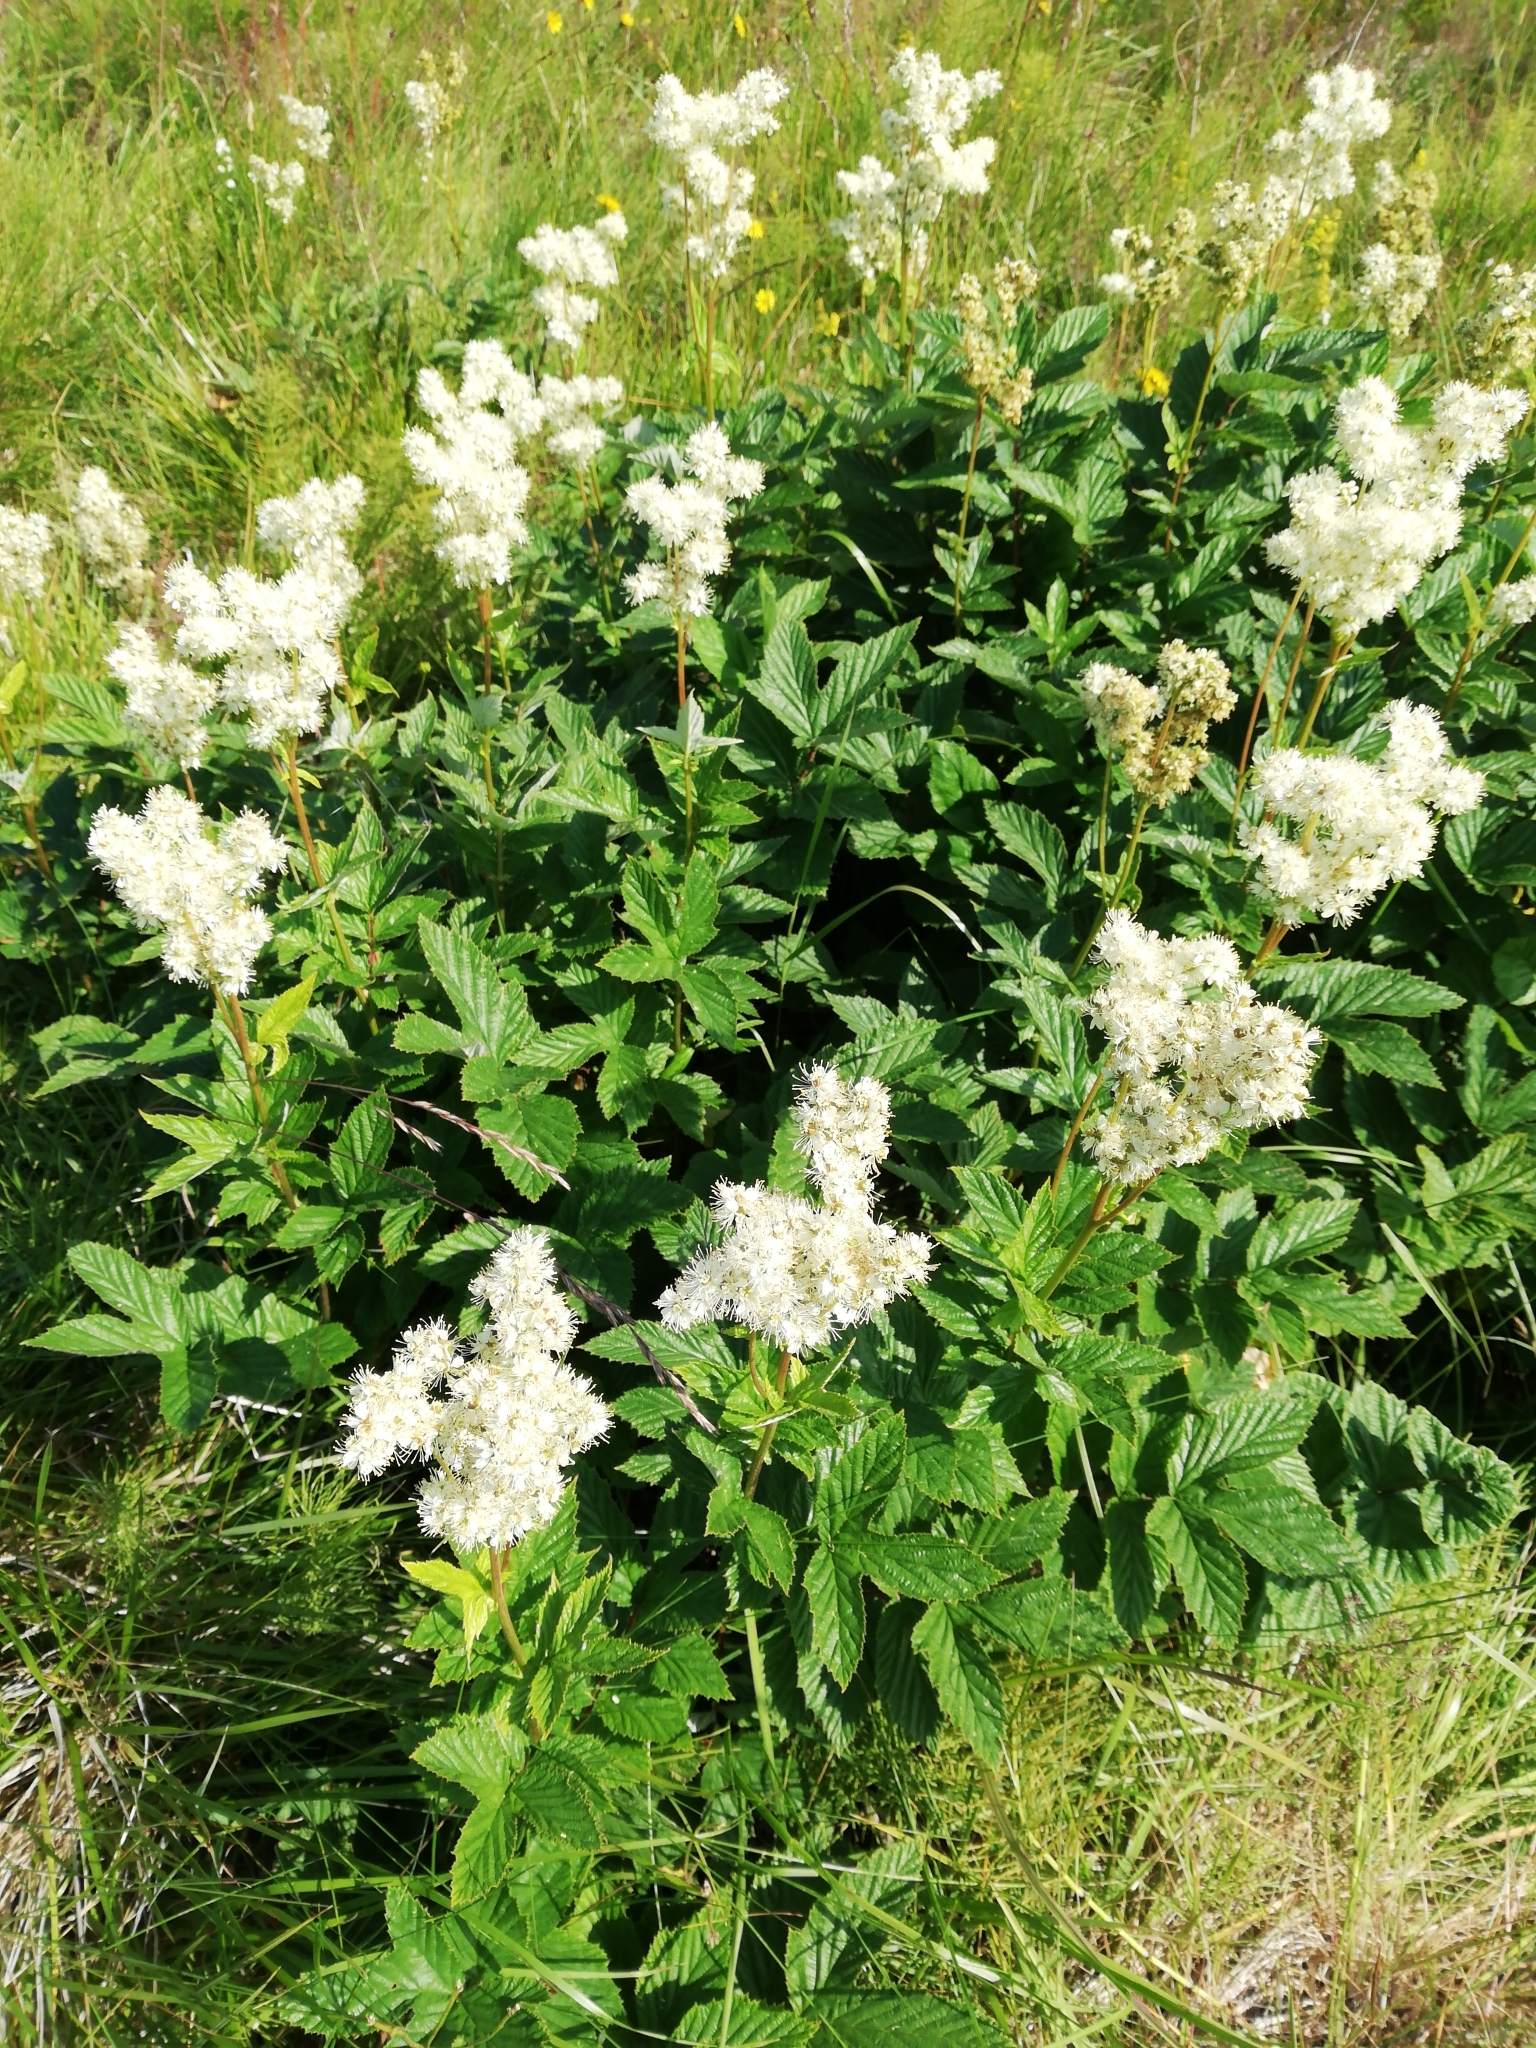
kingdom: Plantae
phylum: Tracheophyta
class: Magnoliopsida
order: Rosales
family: Rosaceae
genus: Filipendula
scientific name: Filipendula ulmaria
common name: Meadowsweet
